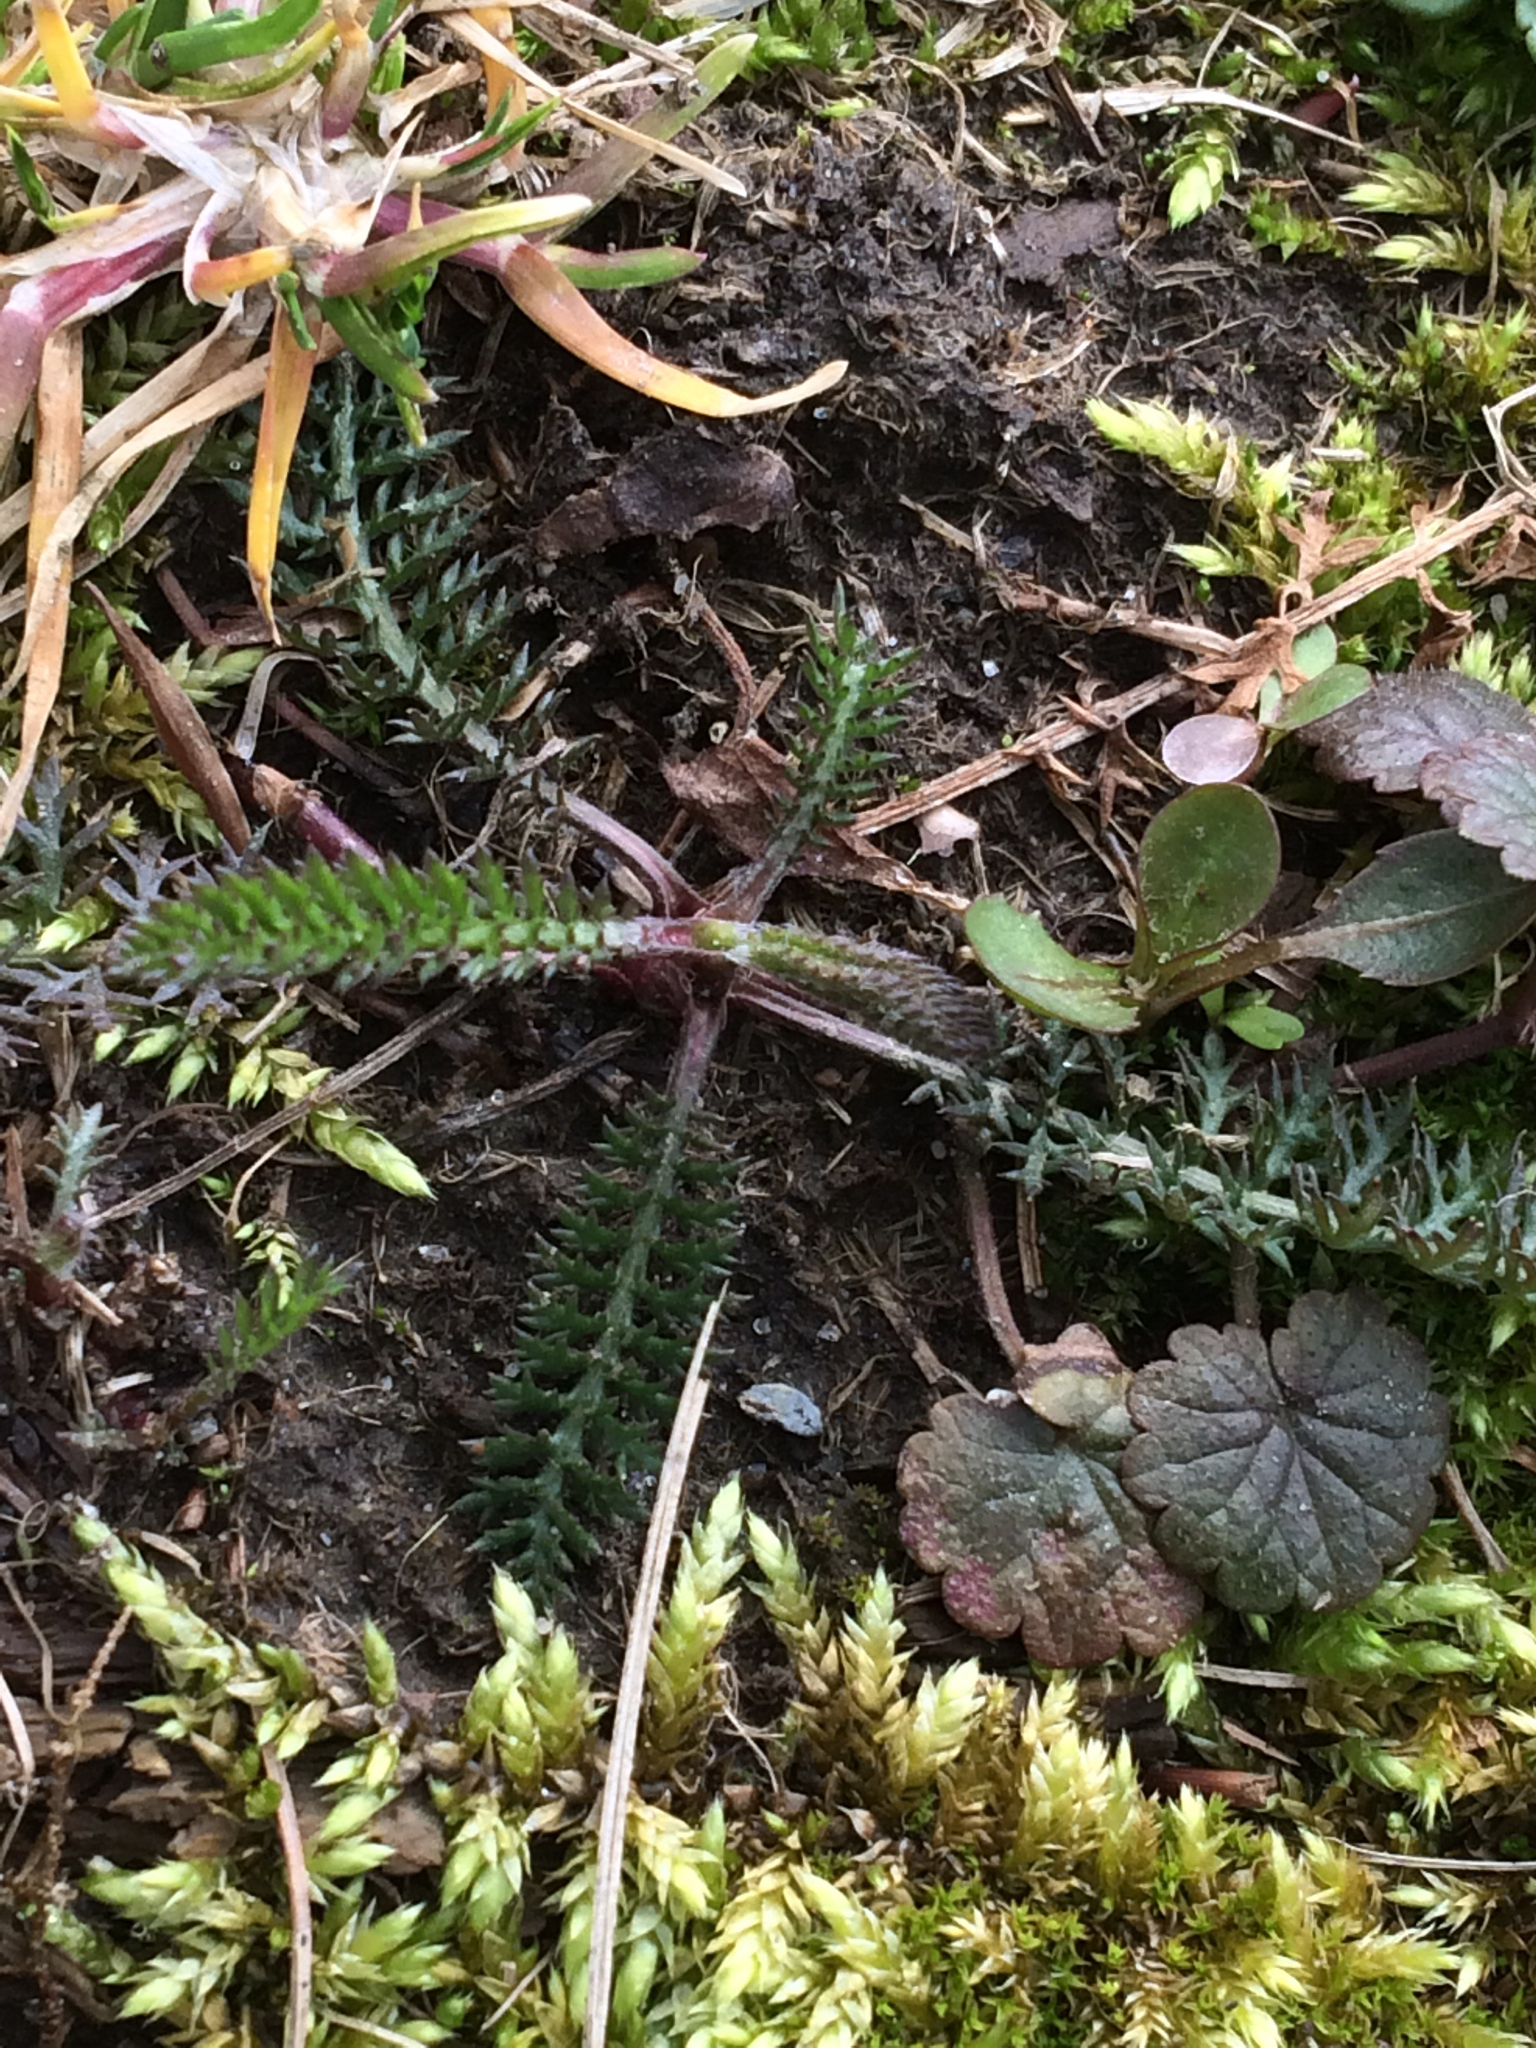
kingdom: Plantae
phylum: Tracheophyta
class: Magnoliopsida
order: Asterales
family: Asteraceae
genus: Achillea
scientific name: Achillea millefolium
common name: Yarrow
